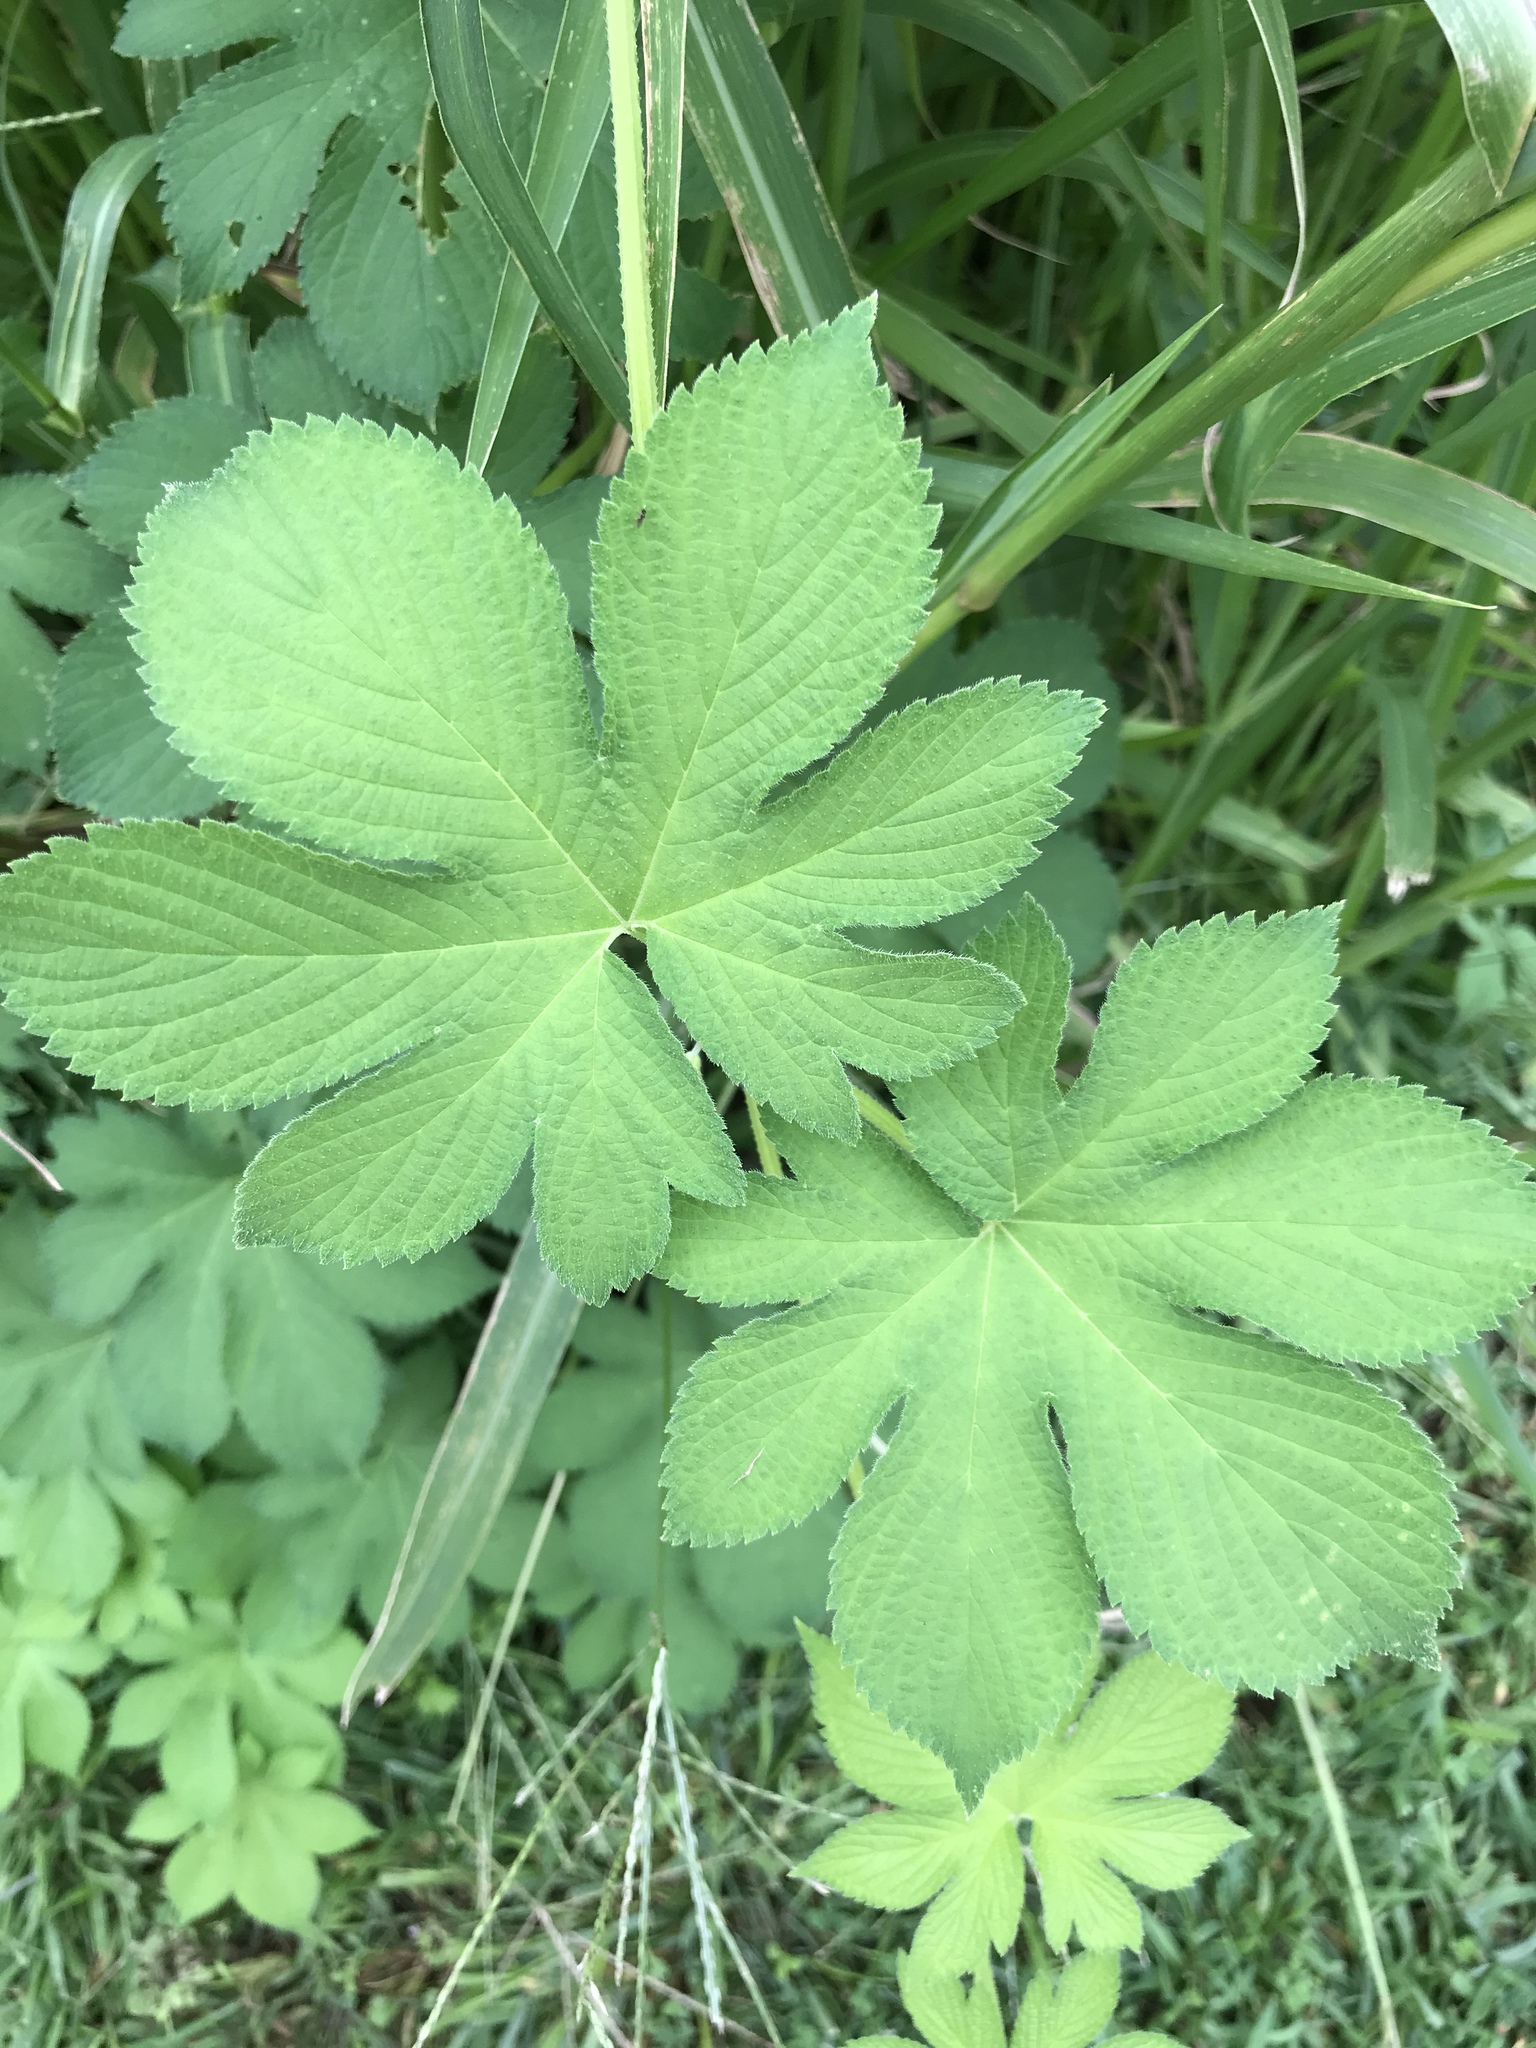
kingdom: Plantae
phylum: Tracheophyta
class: Magnoliopsida
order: Rosales
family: Cannabaceae
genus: Humulus
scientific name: Humulus scandens
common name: Japanese hop
